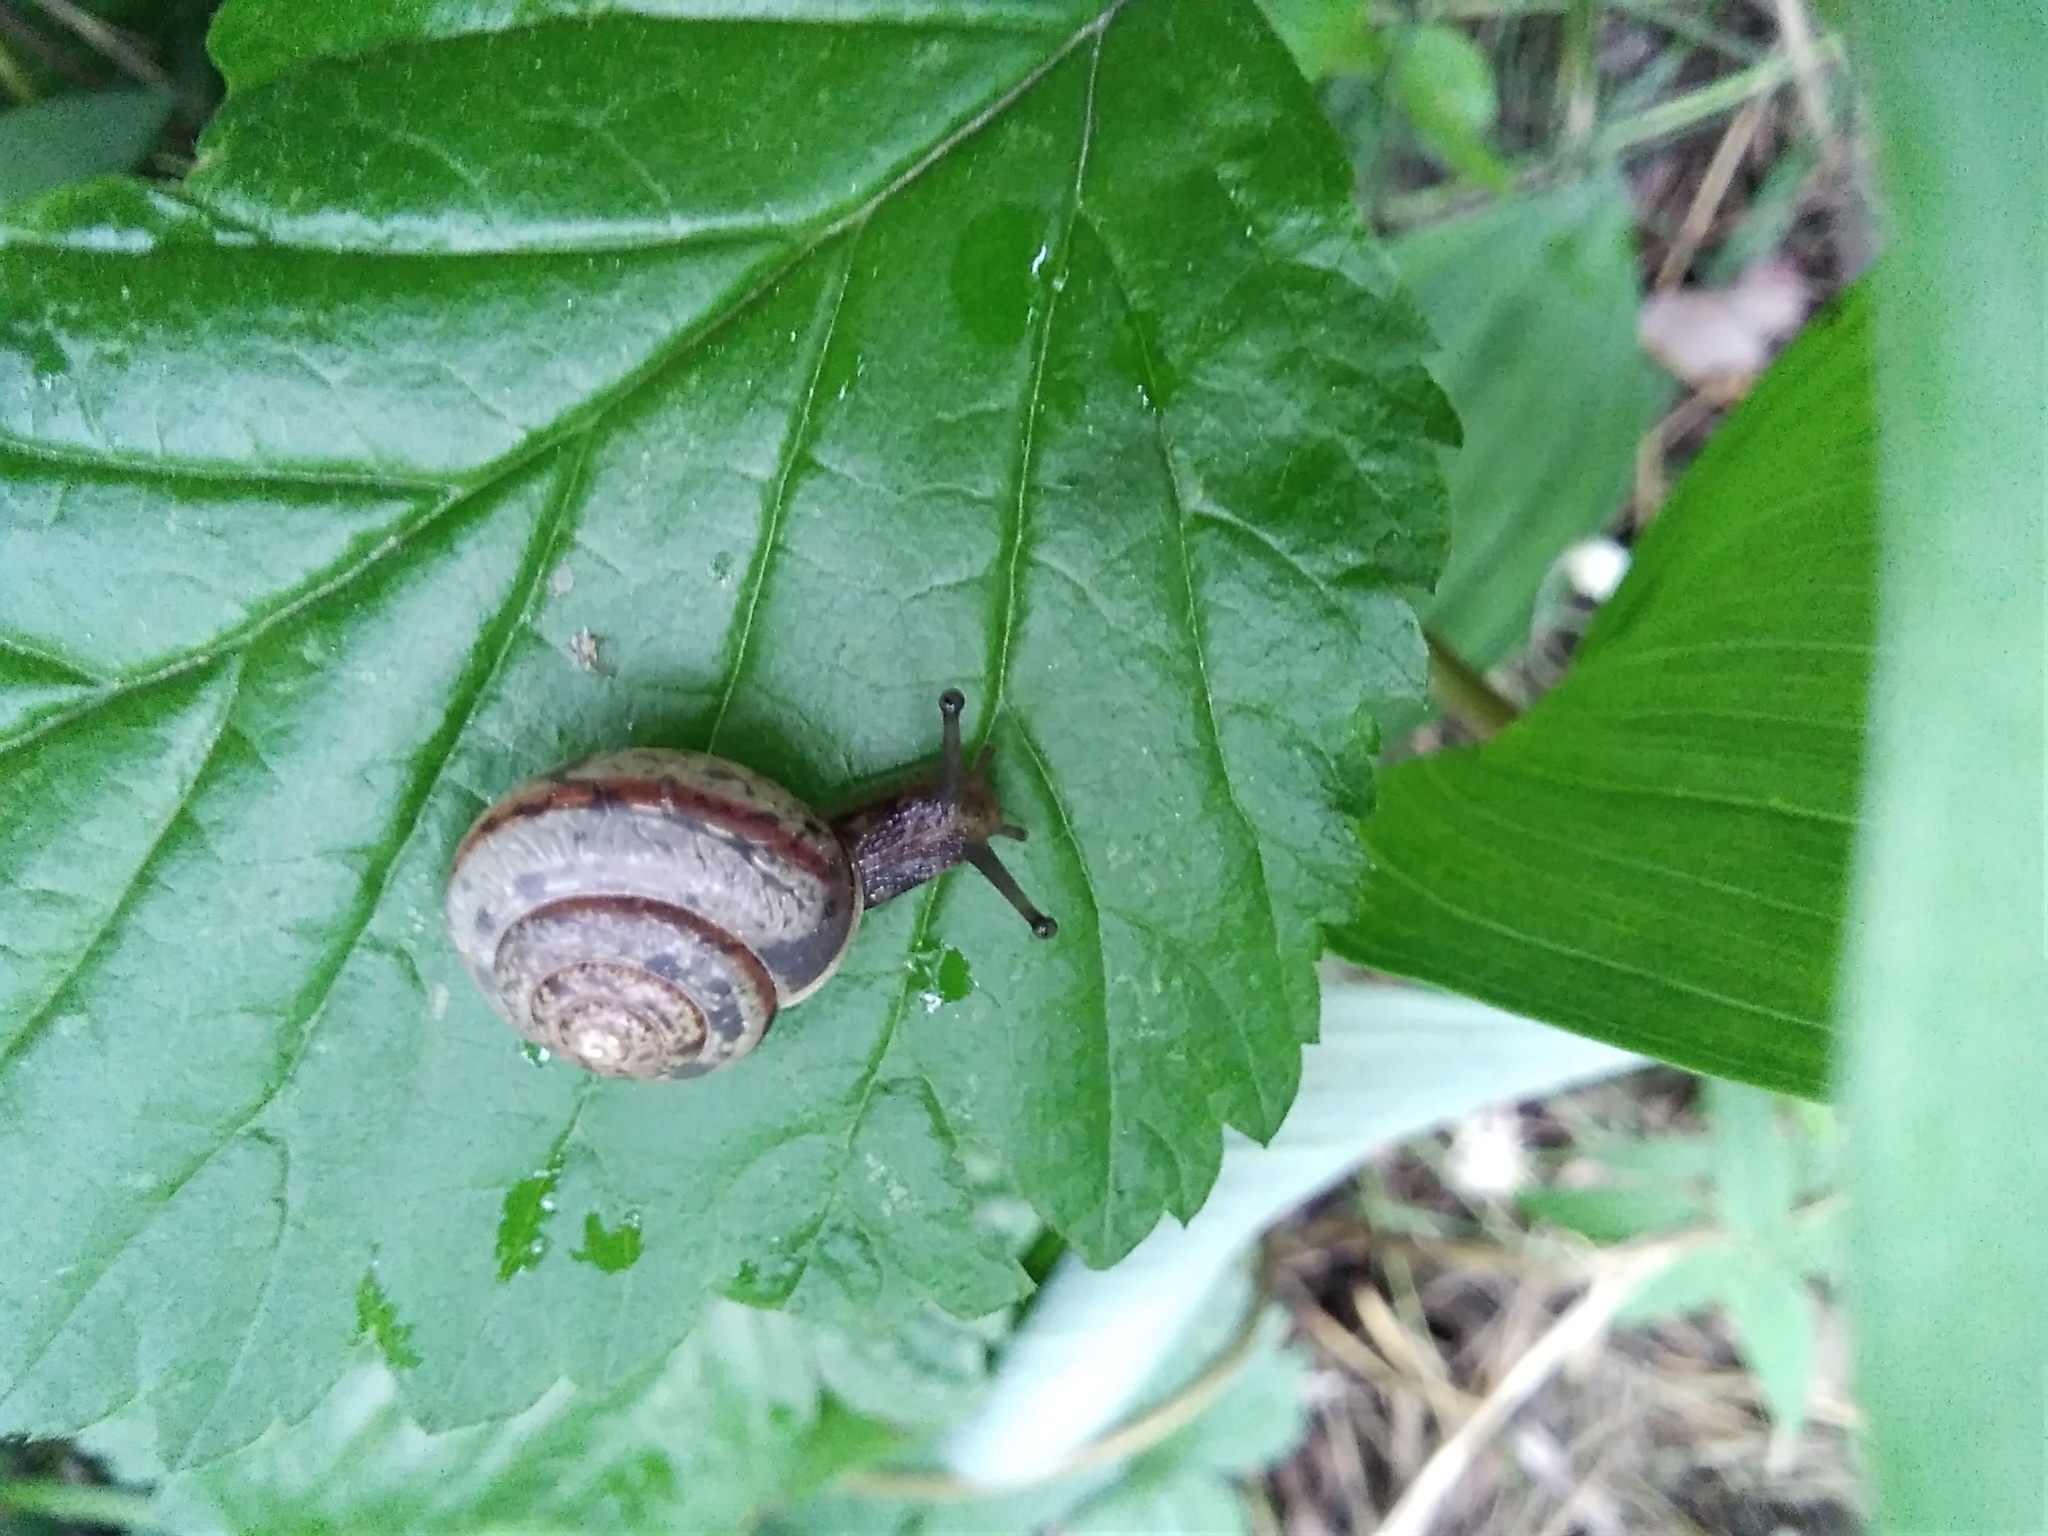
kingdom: Animalia
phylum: Mollusca
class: Gastropoda
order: Stylommatophora
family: Camaenidae
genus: Fruticicola
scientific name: Fruticicola fruticum
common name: Bush snail
